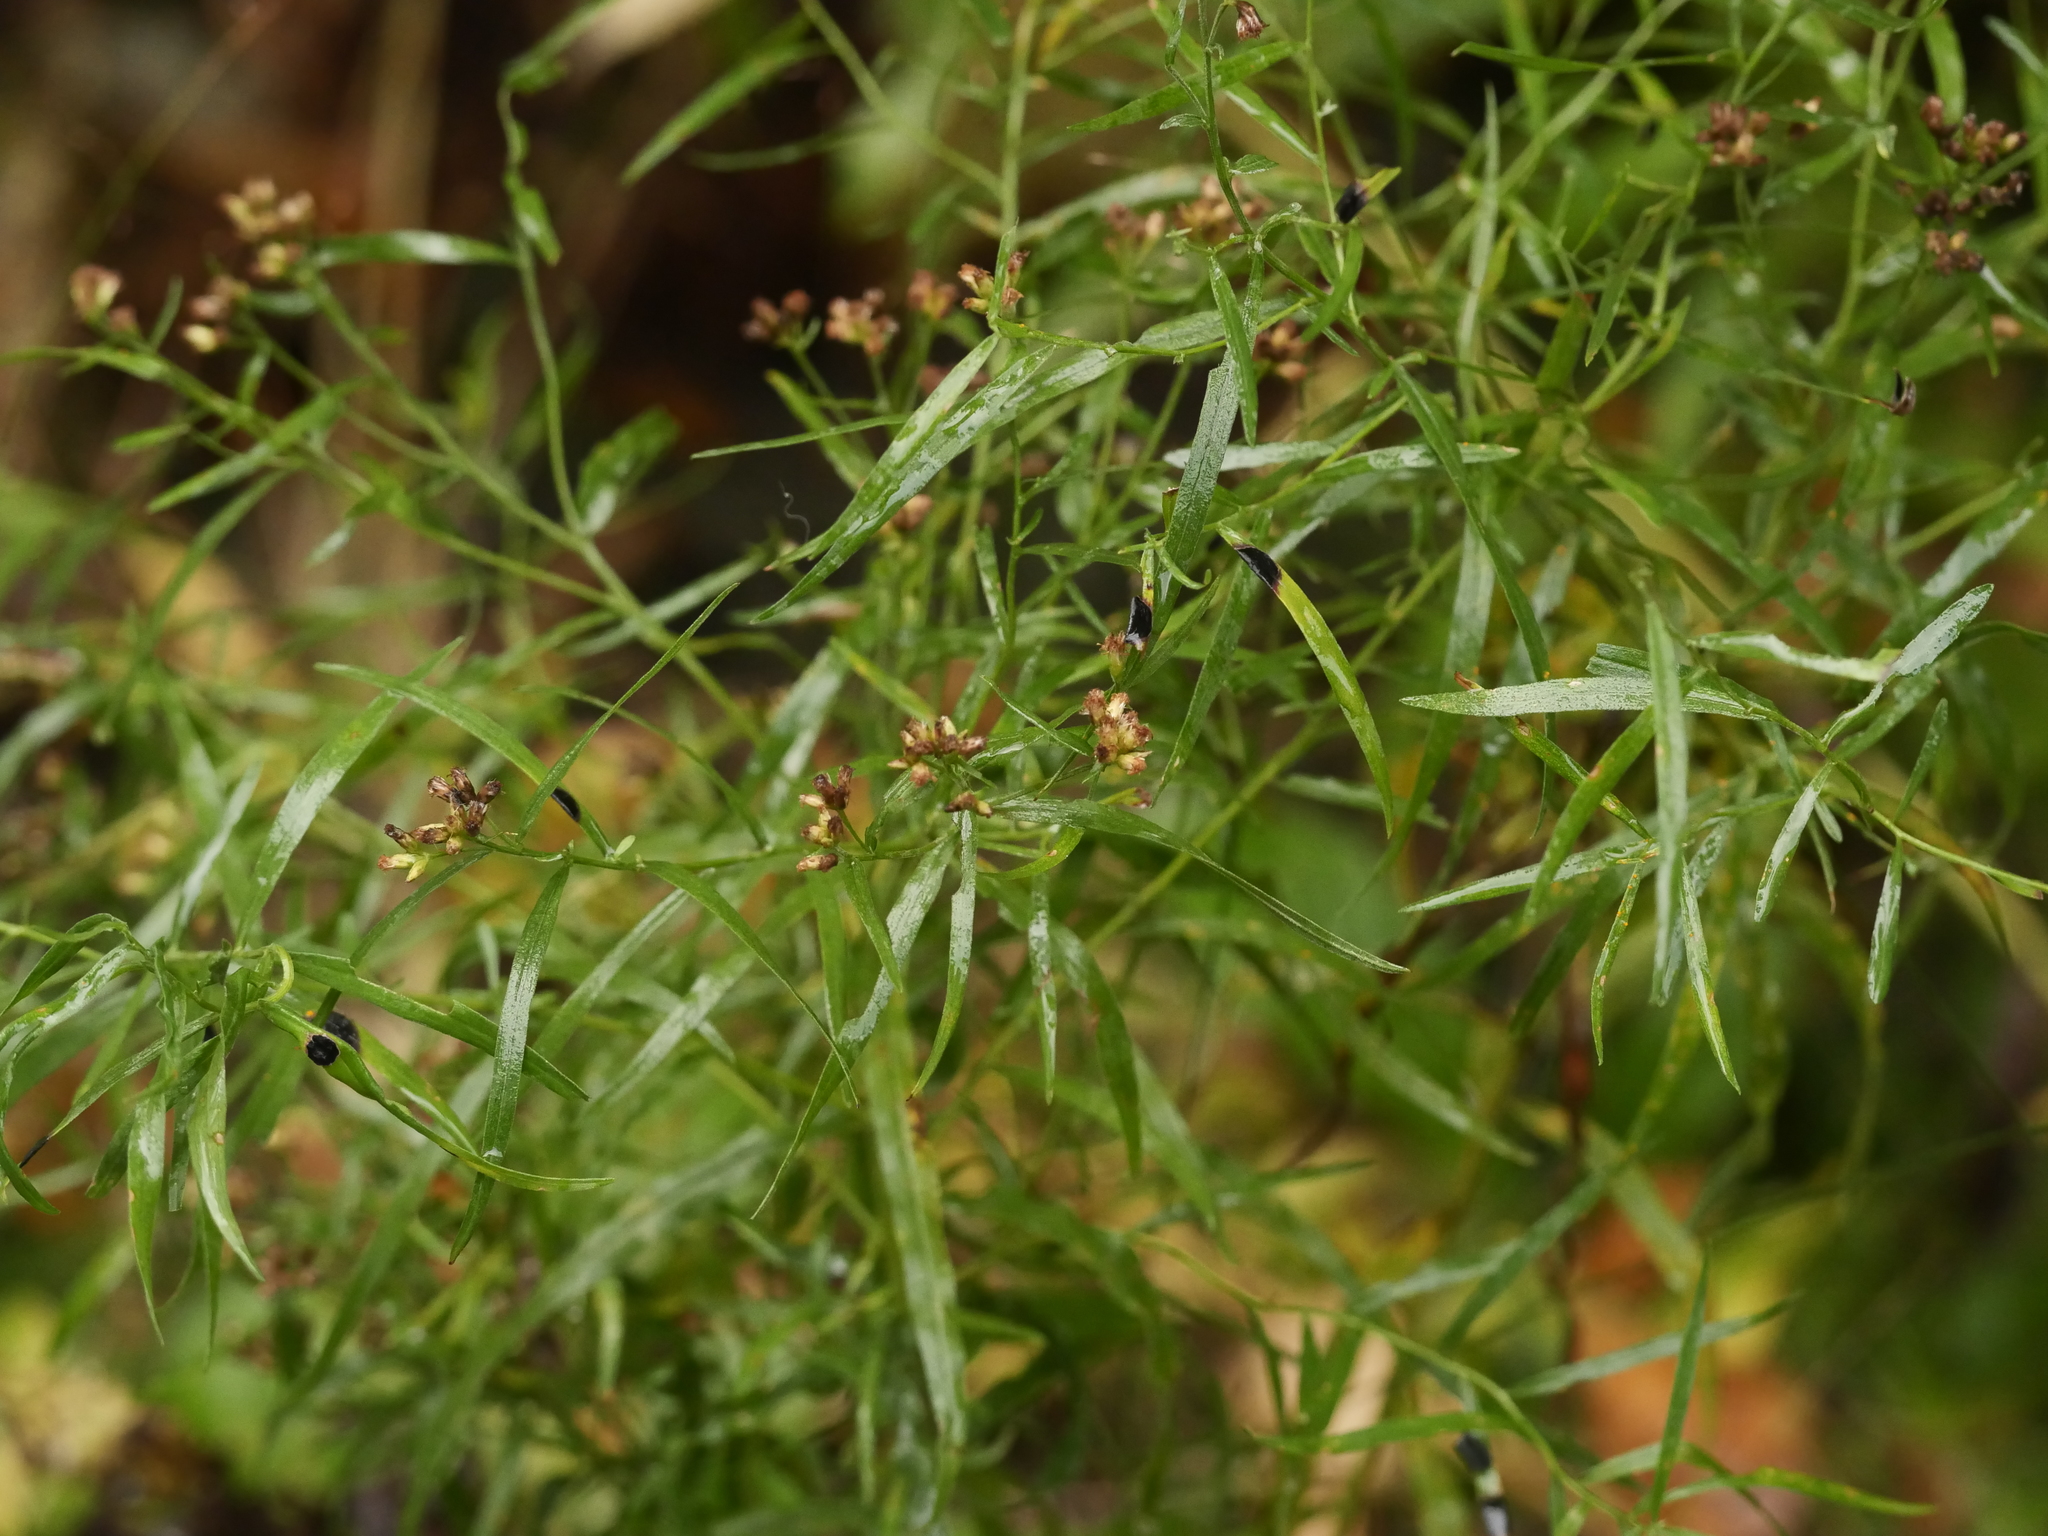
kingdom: Plantae
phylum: Tracheophyta
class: Magnoliopsida
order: Asterales
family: Asteraceae
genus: Euthamia
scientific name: Euthamia graminifolia
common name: Common goldentop
